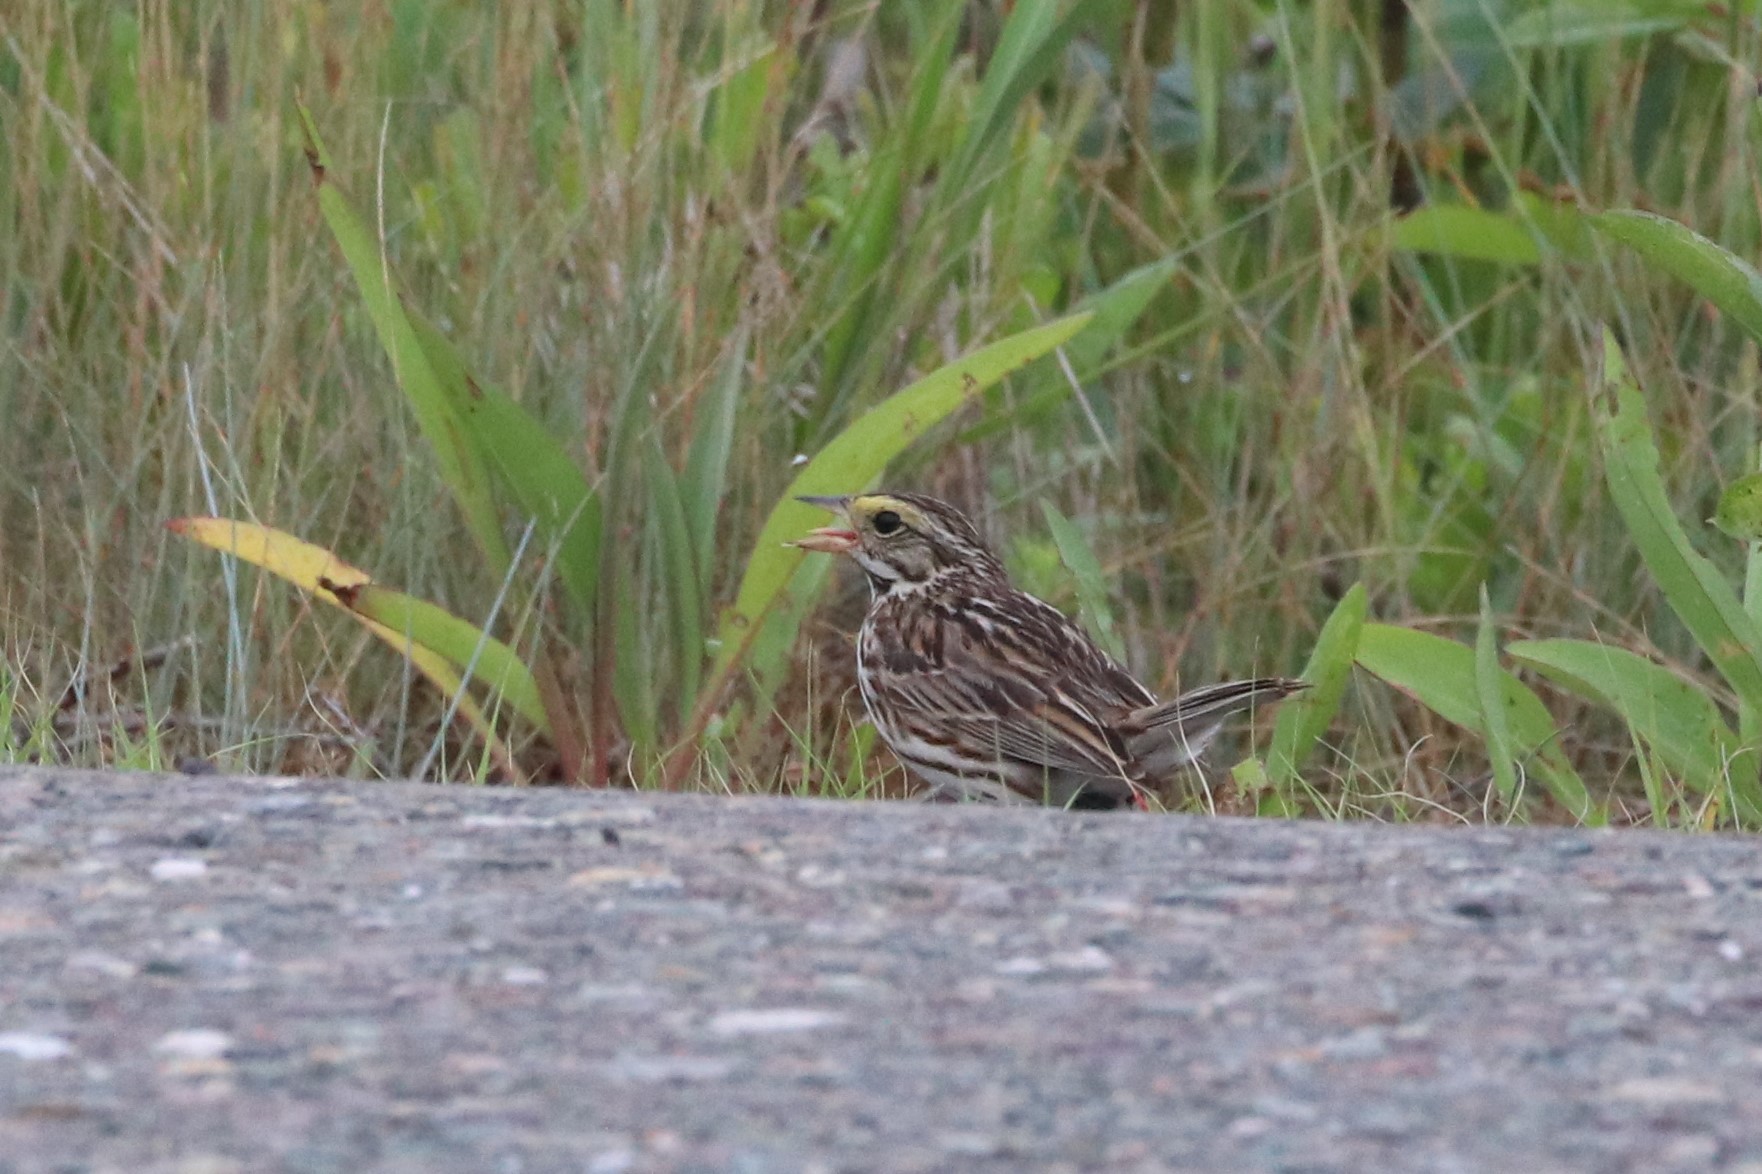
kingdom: Animalia
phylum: Chordata
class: Aves
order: Passeriformes
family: Passerellidae
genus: Passerculus
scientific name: Passerculus sandwichensis
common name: Savannah sparrow
